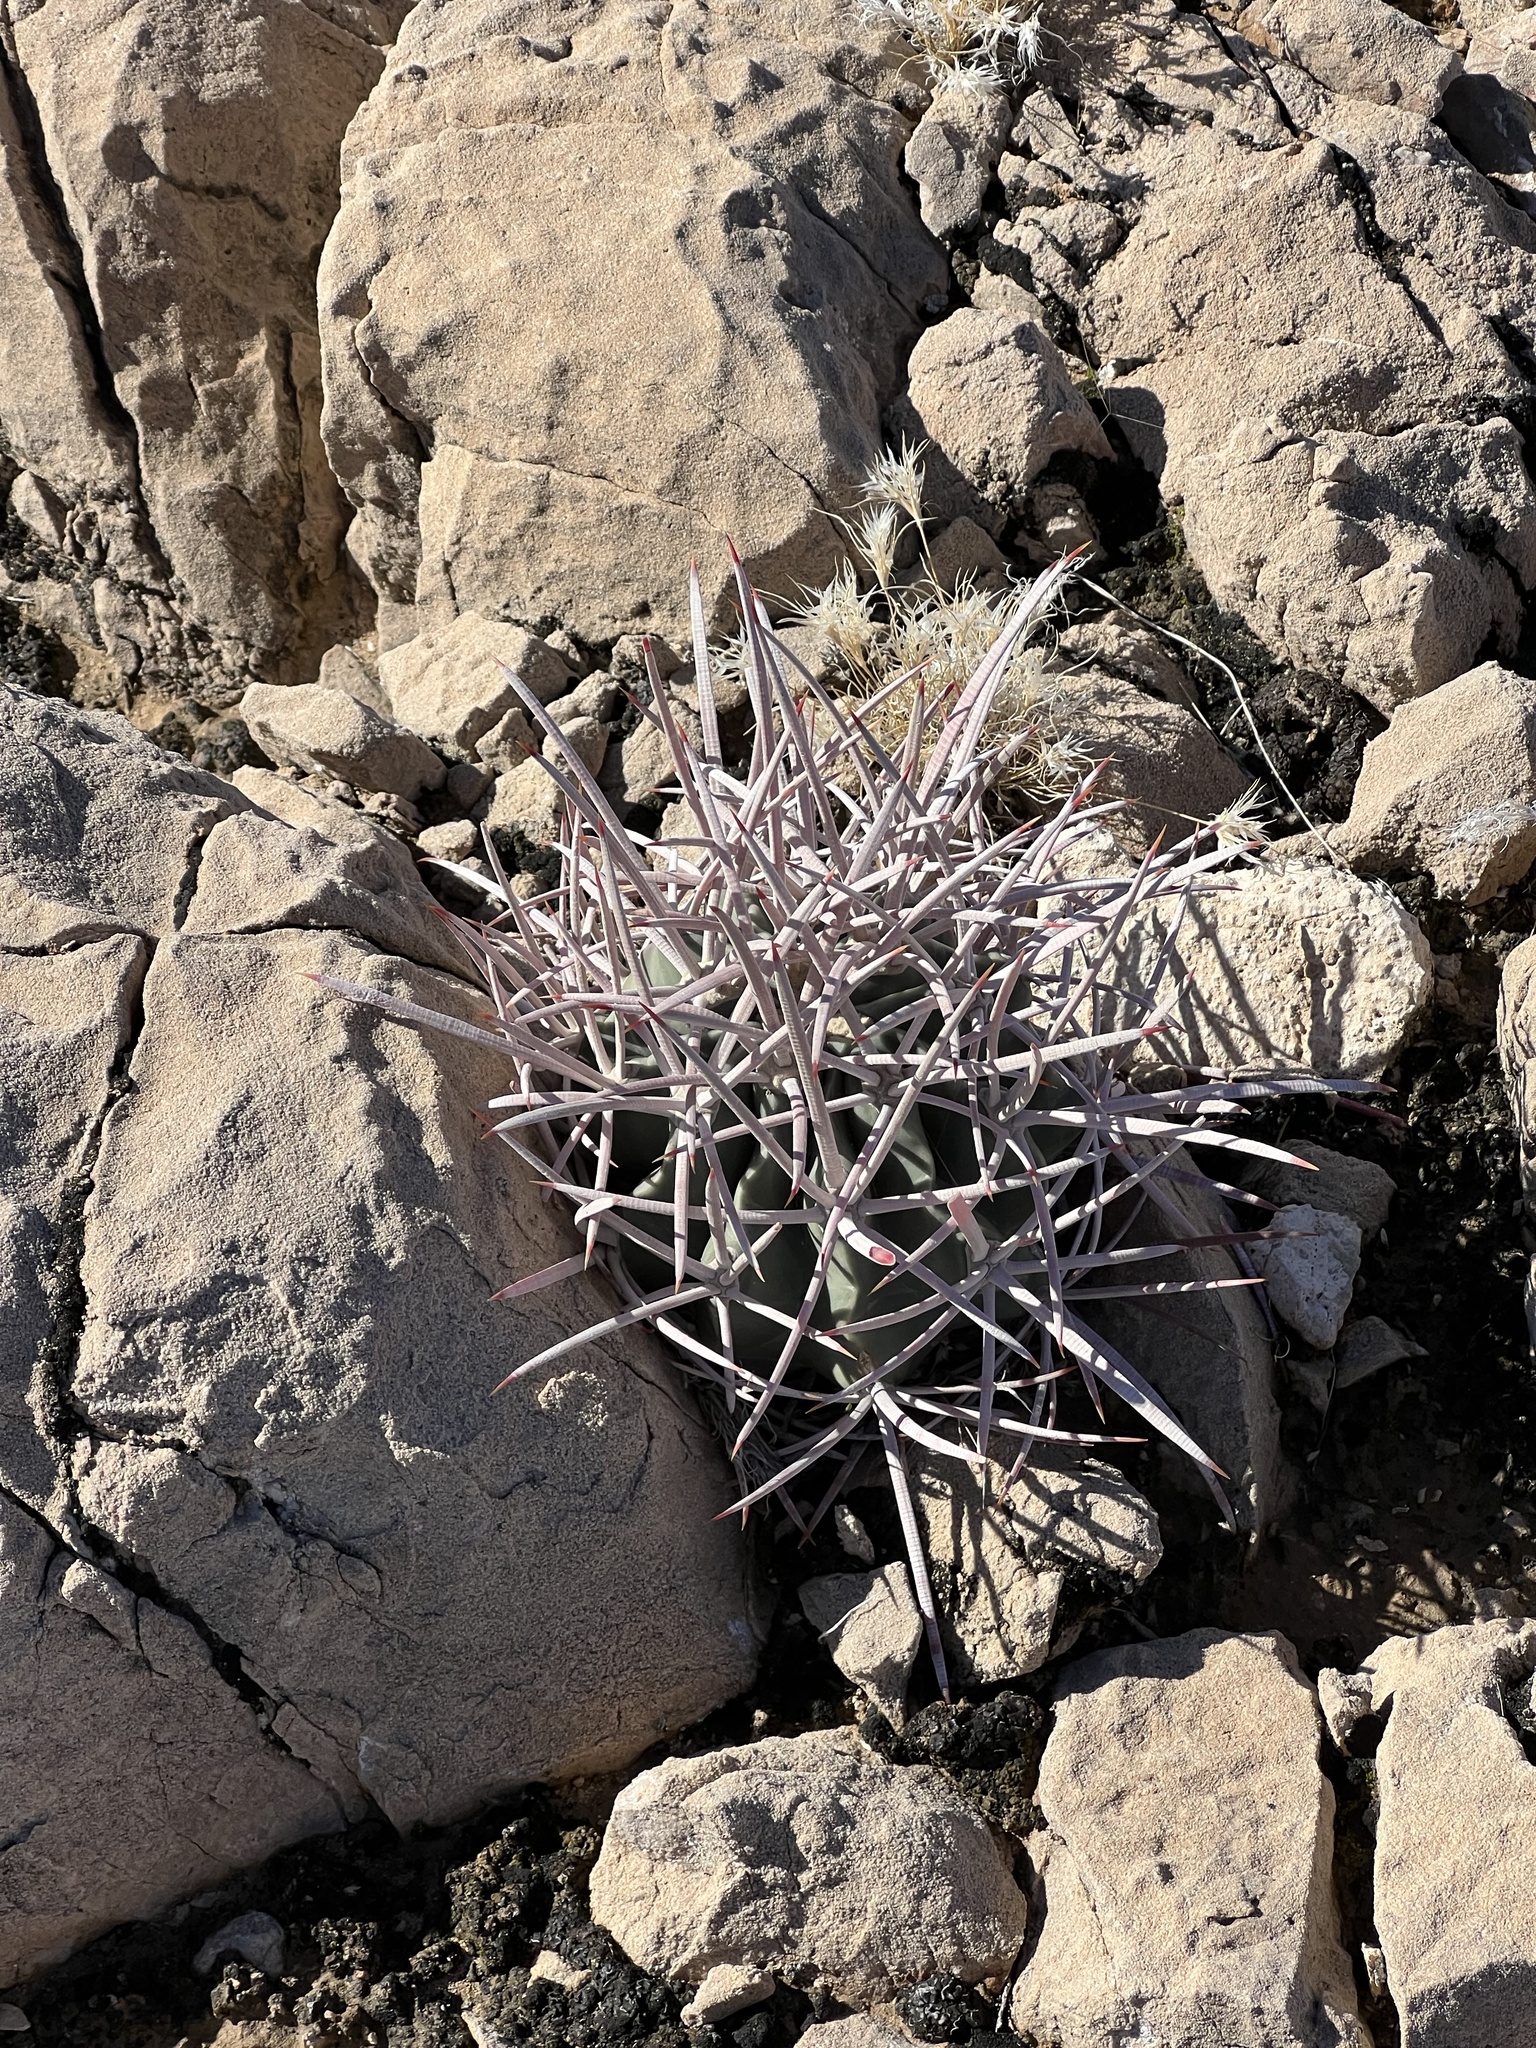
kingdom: Plantae
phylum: Tracheophyta
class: Magnoliopsida
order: Caryophyllales
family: Cactaceae
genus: Echinocactus
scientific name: Echinocactus polycephalus
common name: Cottontop cactus
